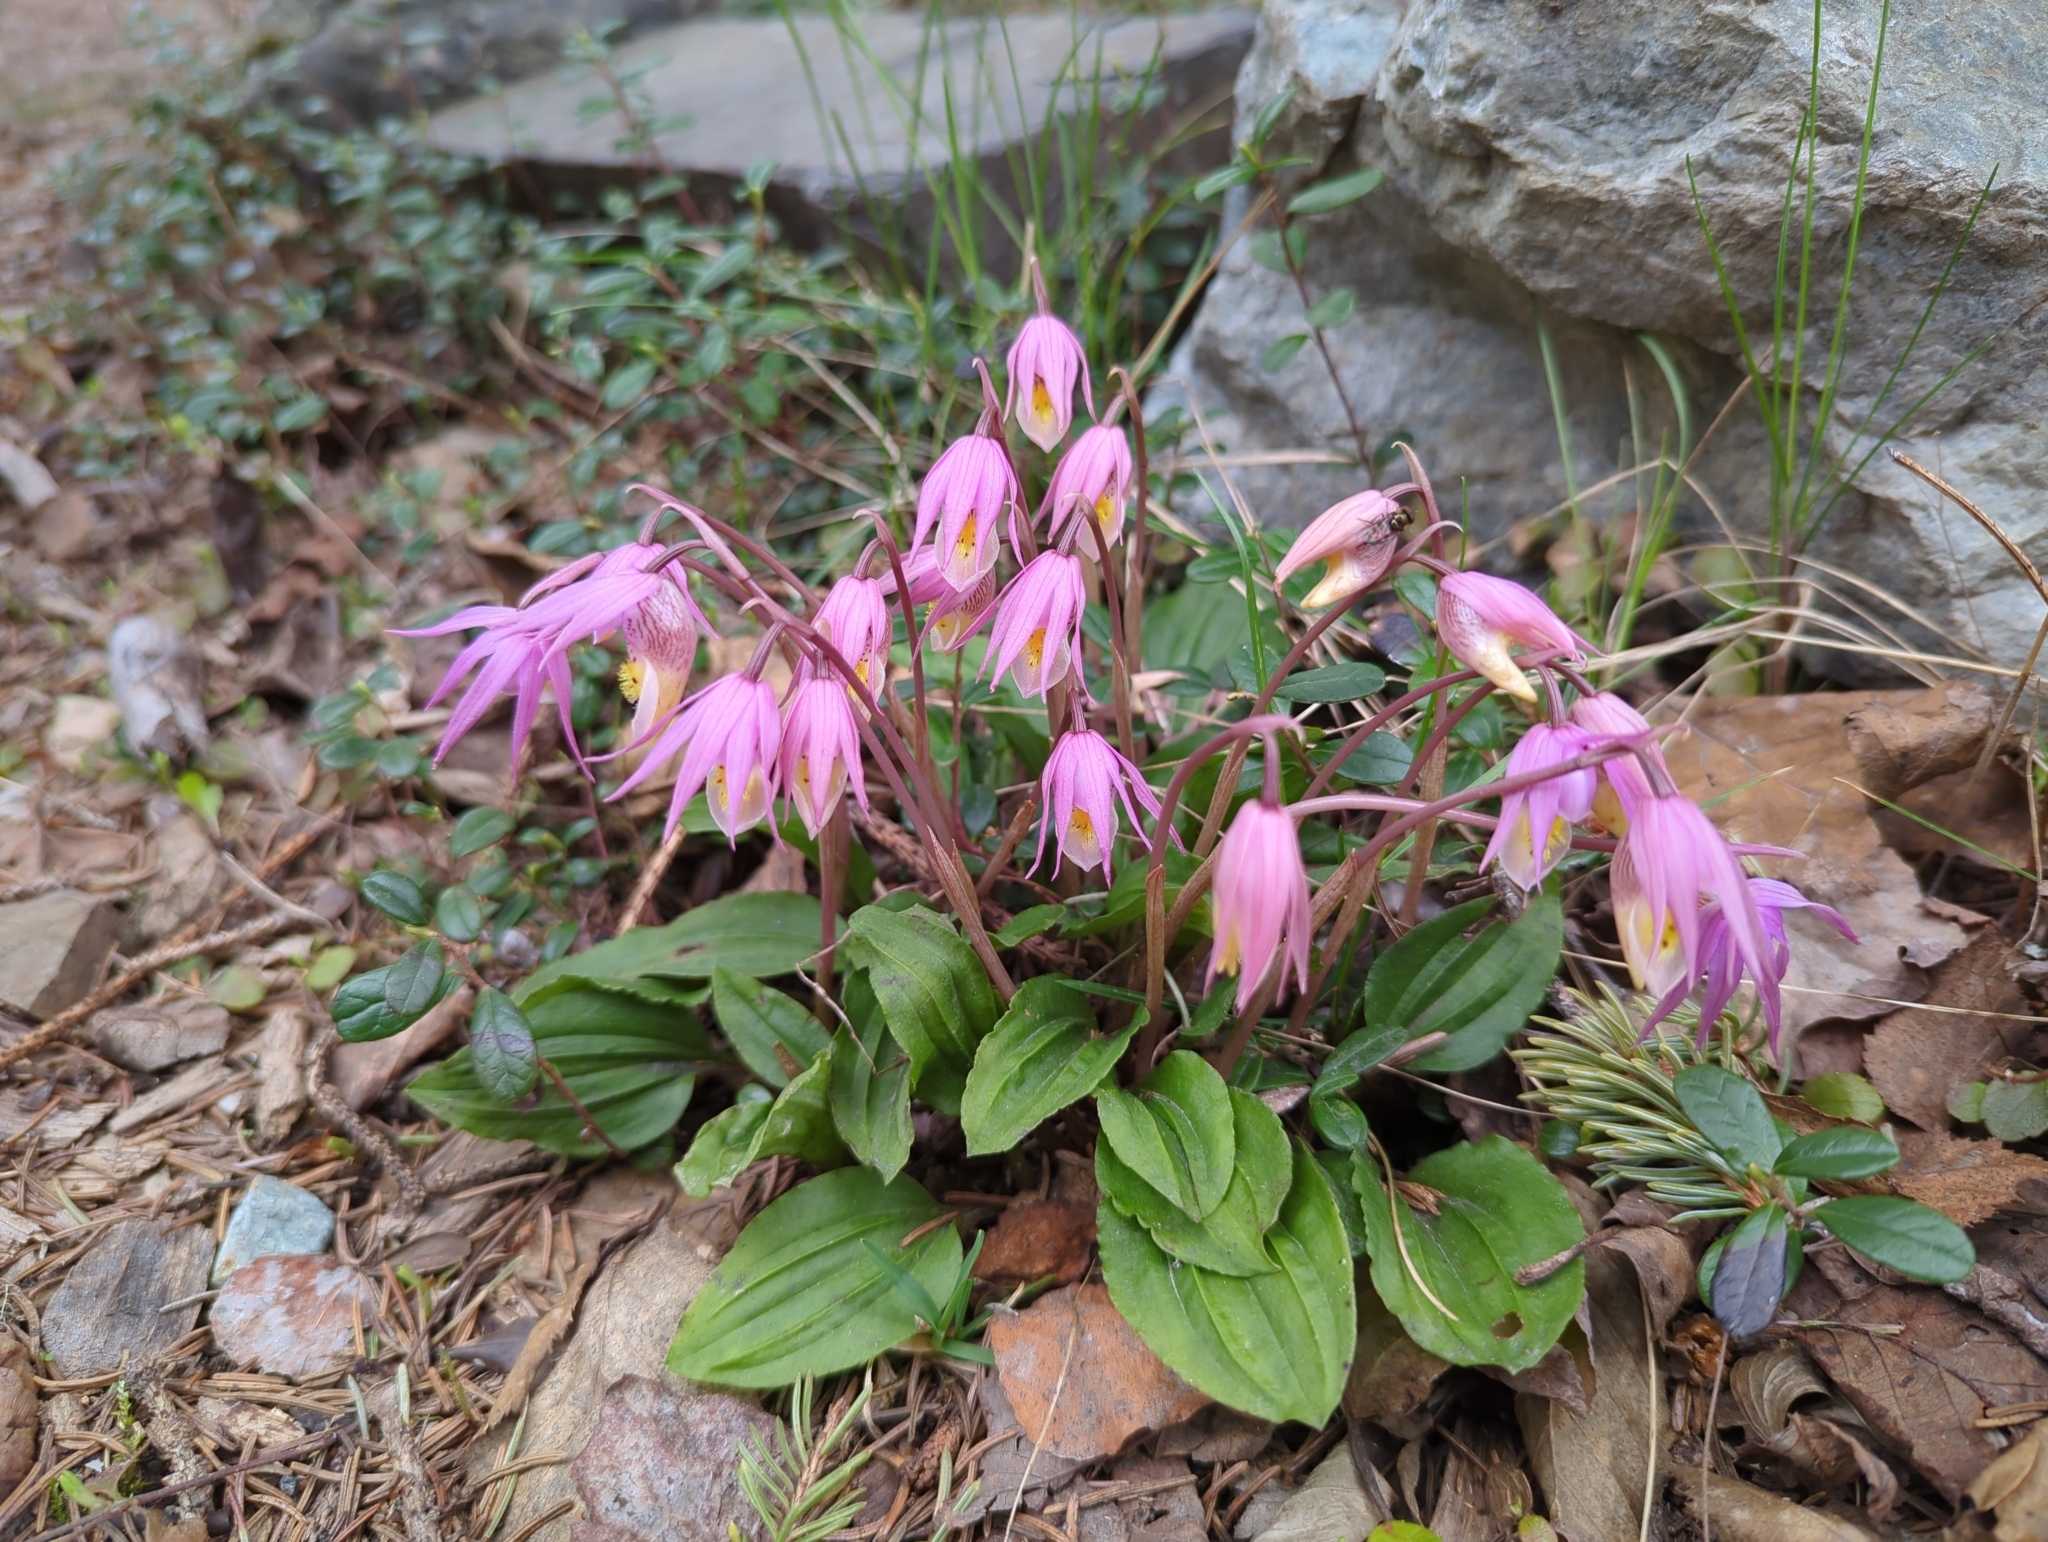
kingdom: Plantae
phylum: Tracheophyta
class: Liliopsida
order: Asparagales
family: Orchidaceae
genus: Calypso
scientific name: Calypso bulbosa
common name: Calypso
